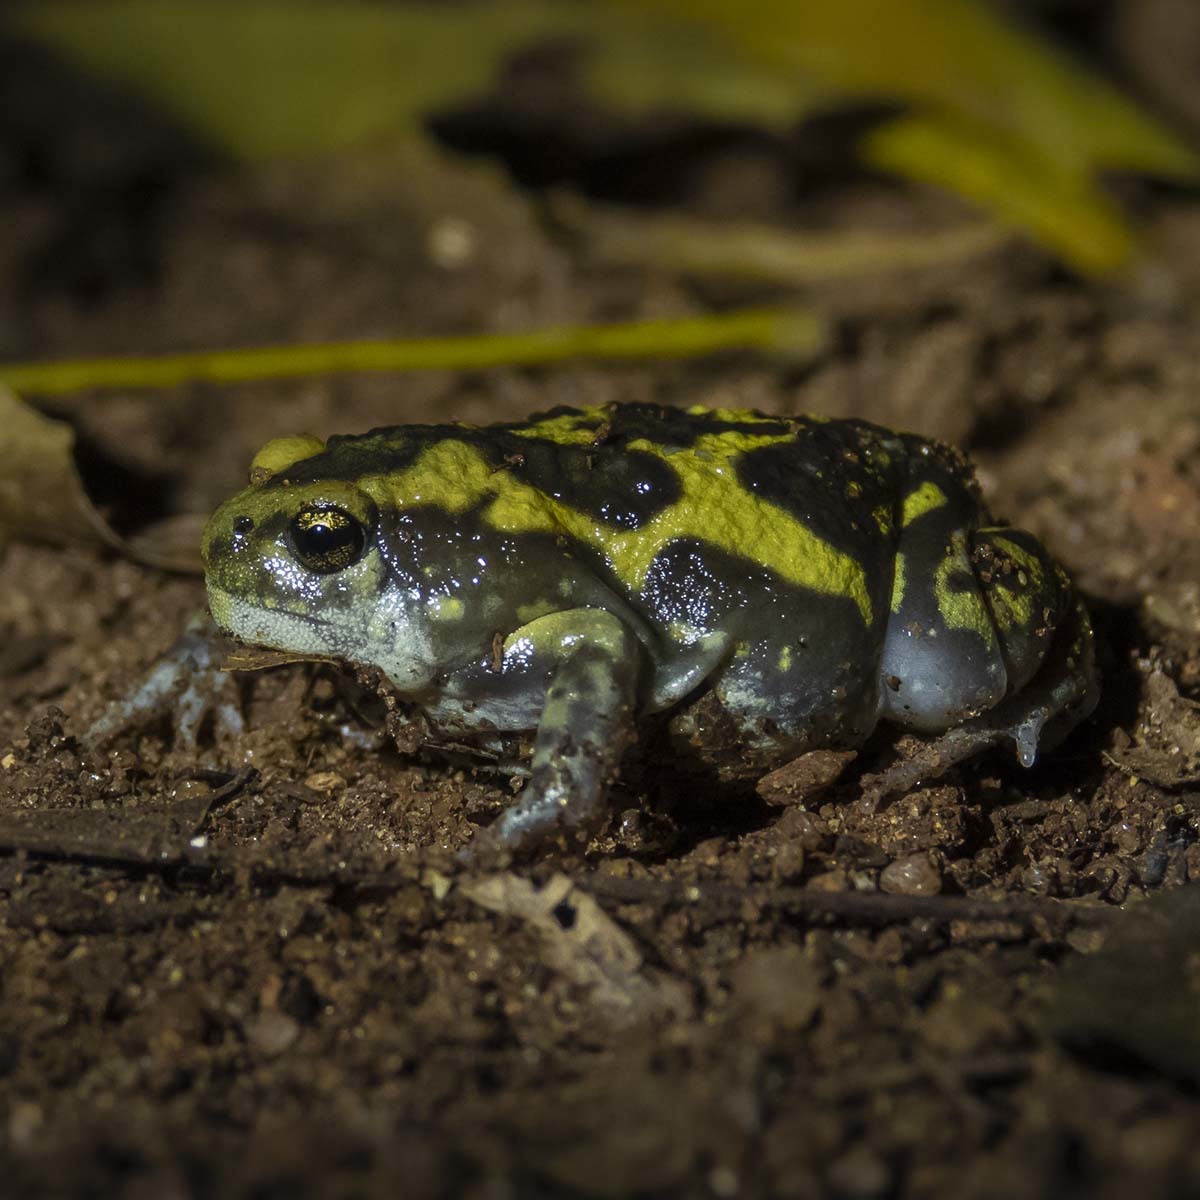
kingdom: Animalia
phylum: Chordata
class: Amphibia
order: Anura
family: Microhylidae
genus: Uperodon
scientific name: Uperodon systoma
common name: Balloon frog
